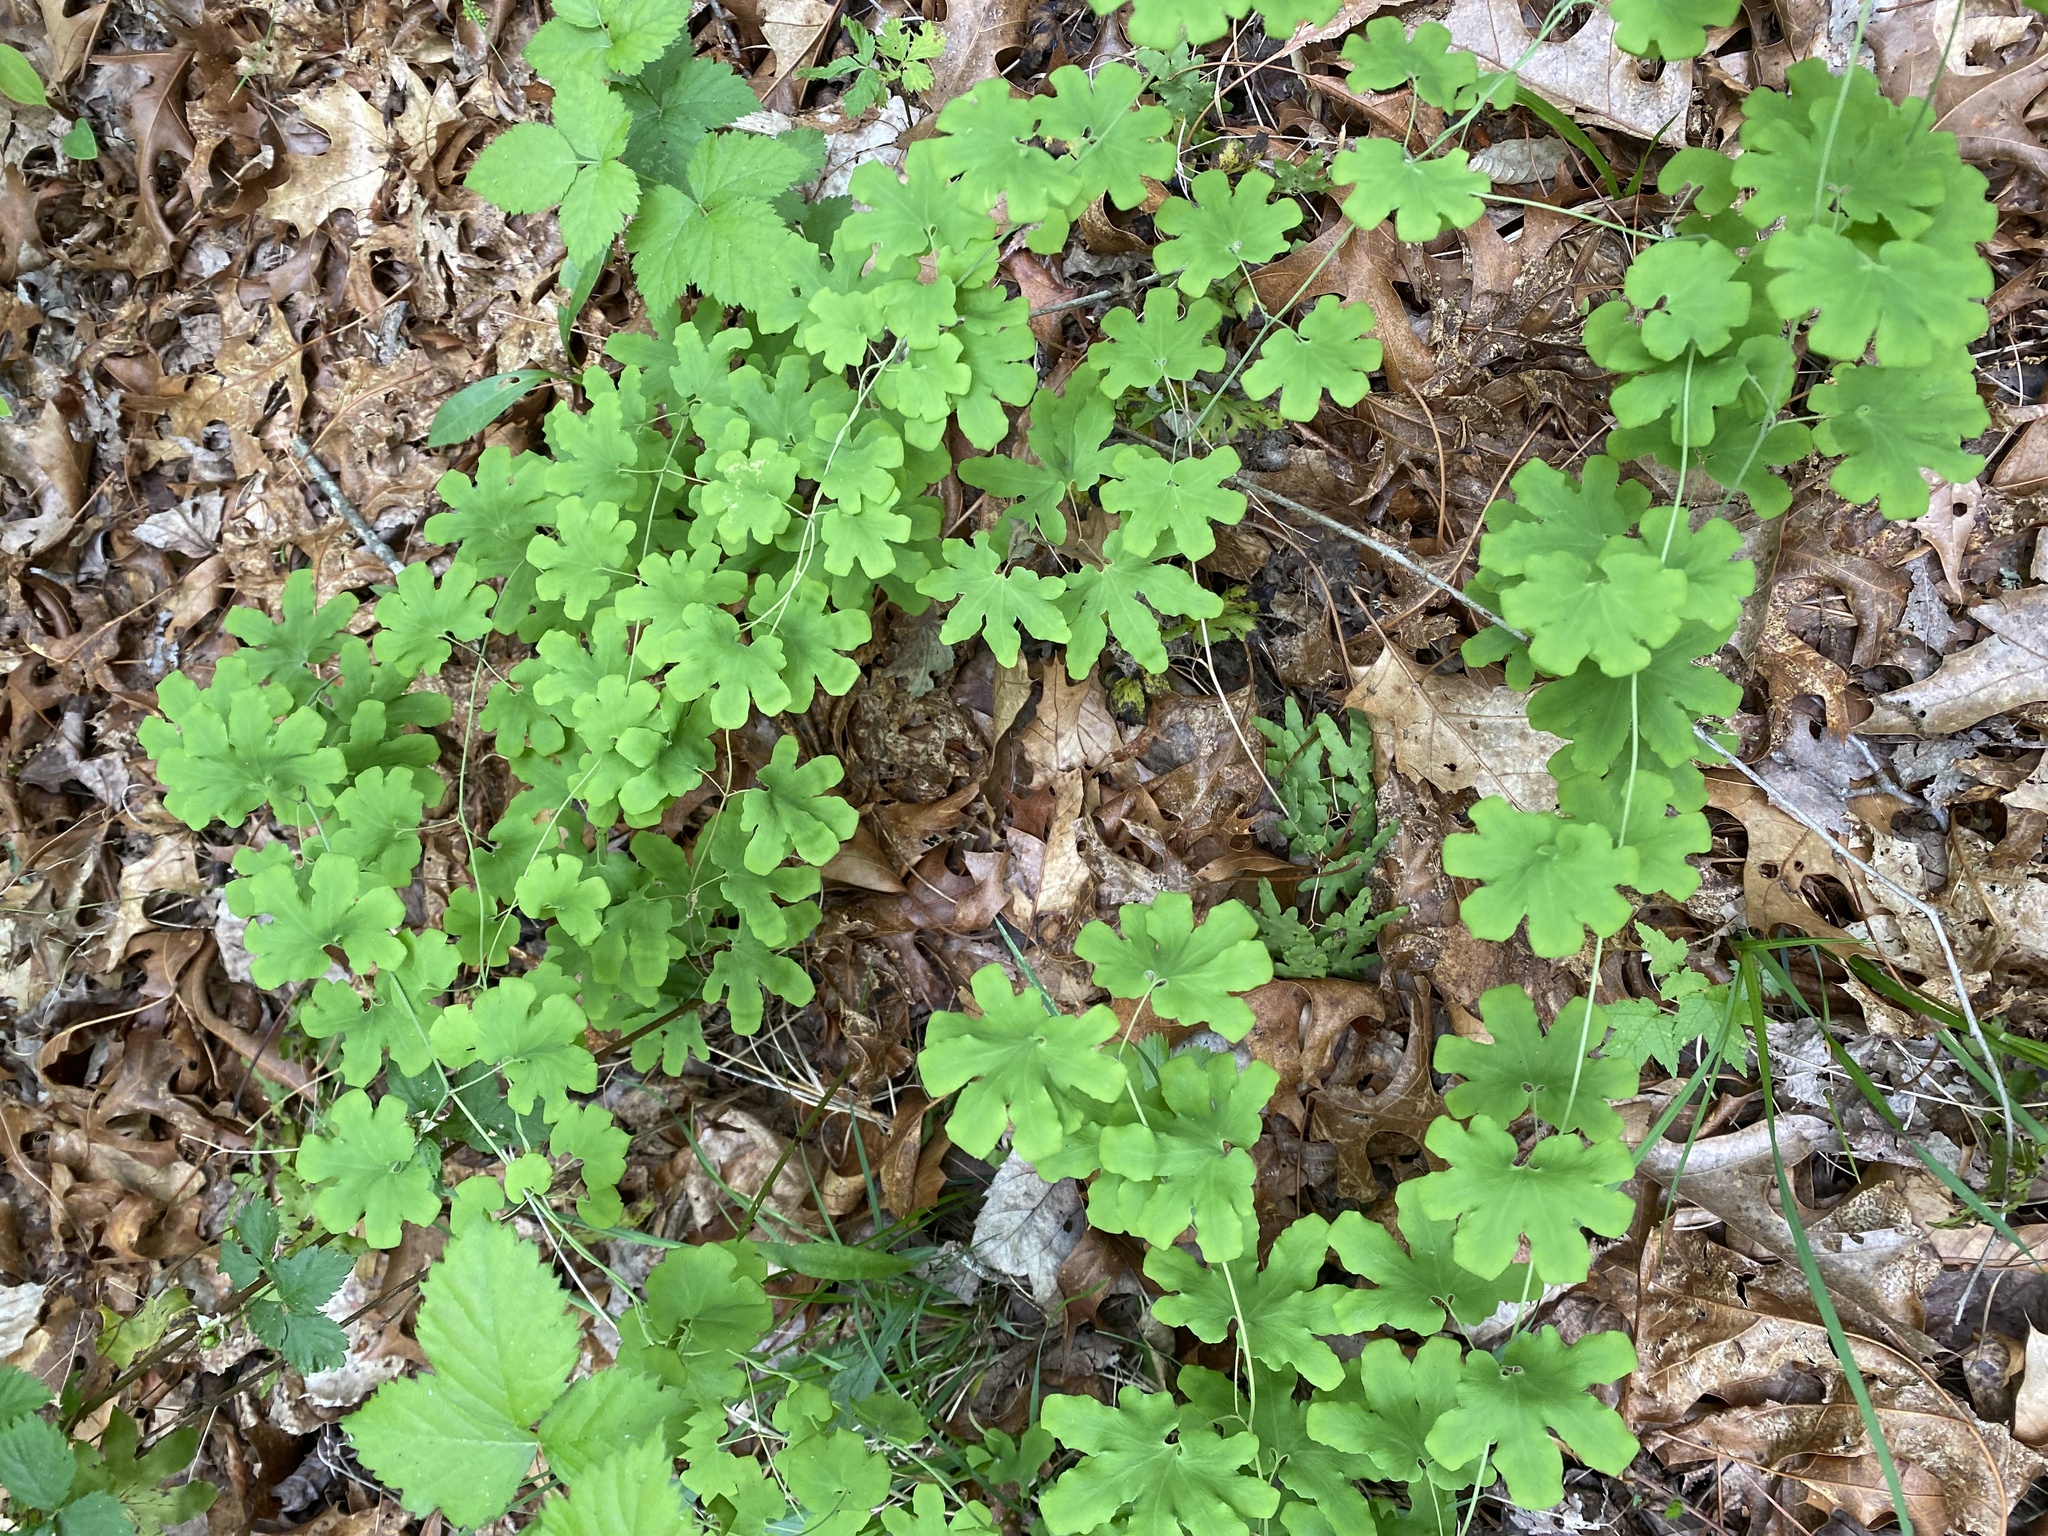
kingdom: Plantae
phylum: Tracheophyta
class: Polypodiopsida
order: Schizaeales
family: Lygodiaceae
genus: Lygodium
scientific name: Lygodium palmatum
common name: American climbing fern
